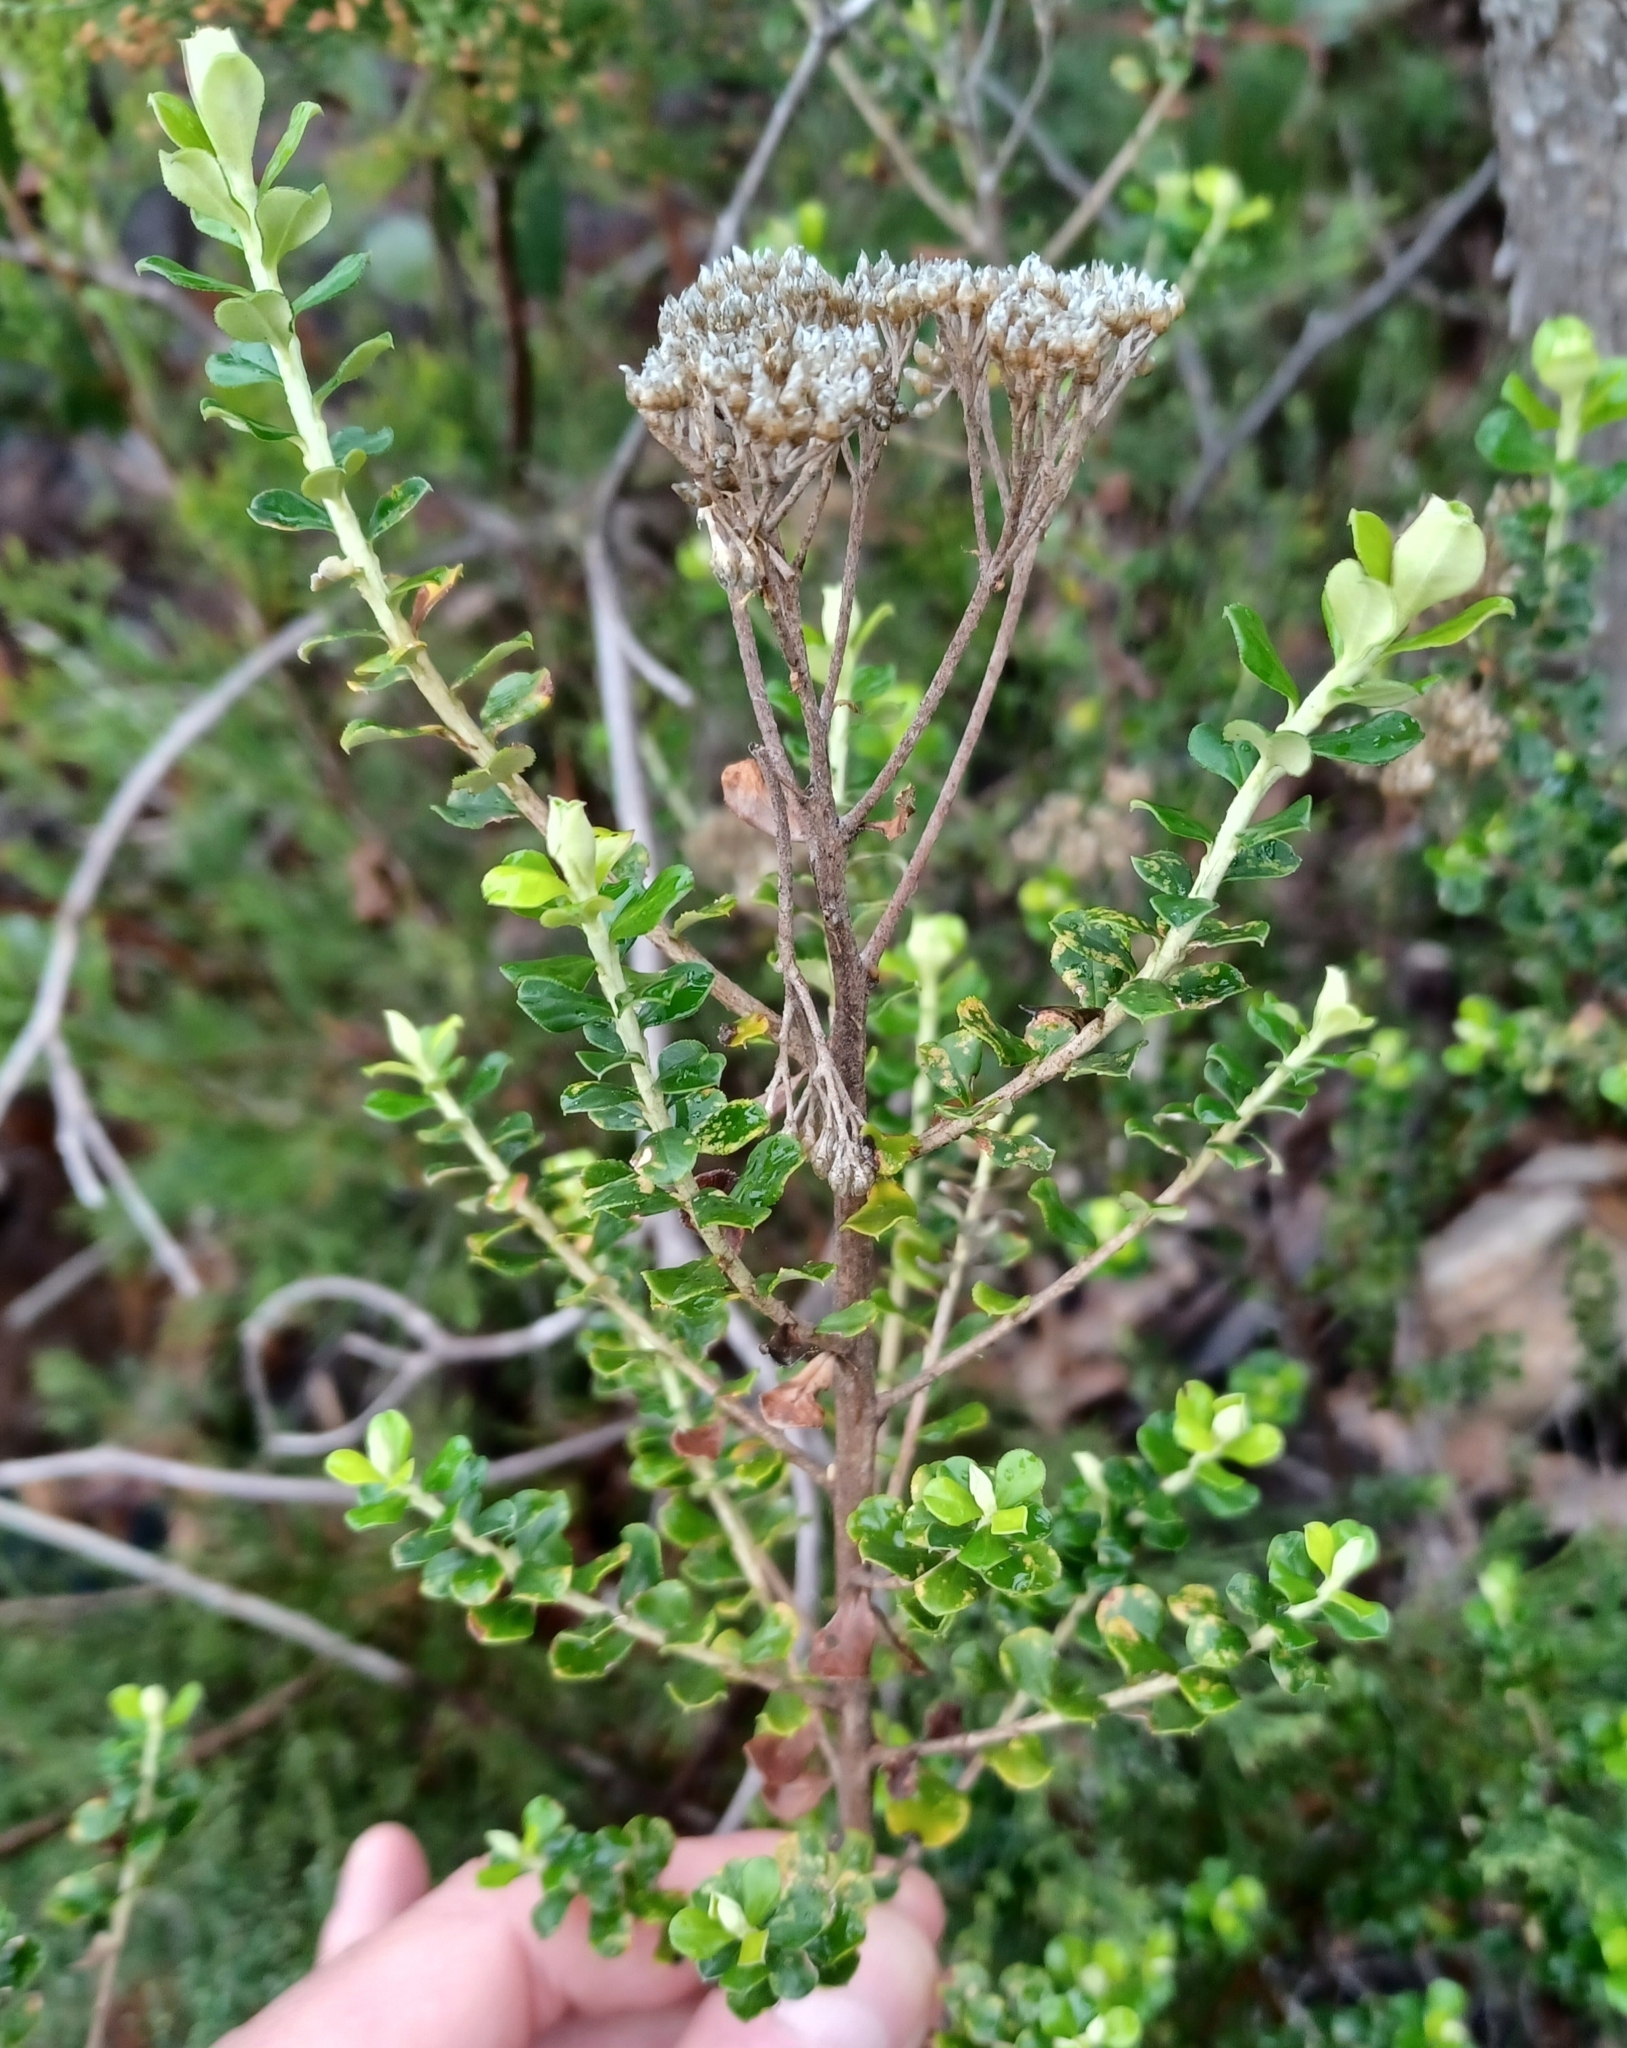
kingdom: Plantae
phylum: Tracheophyta
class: Magnoliopsida
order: Asterales
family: Asteraceae
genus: Ozothamnus
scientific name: Ozothamnus obcordatus
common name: Grey everlasting
